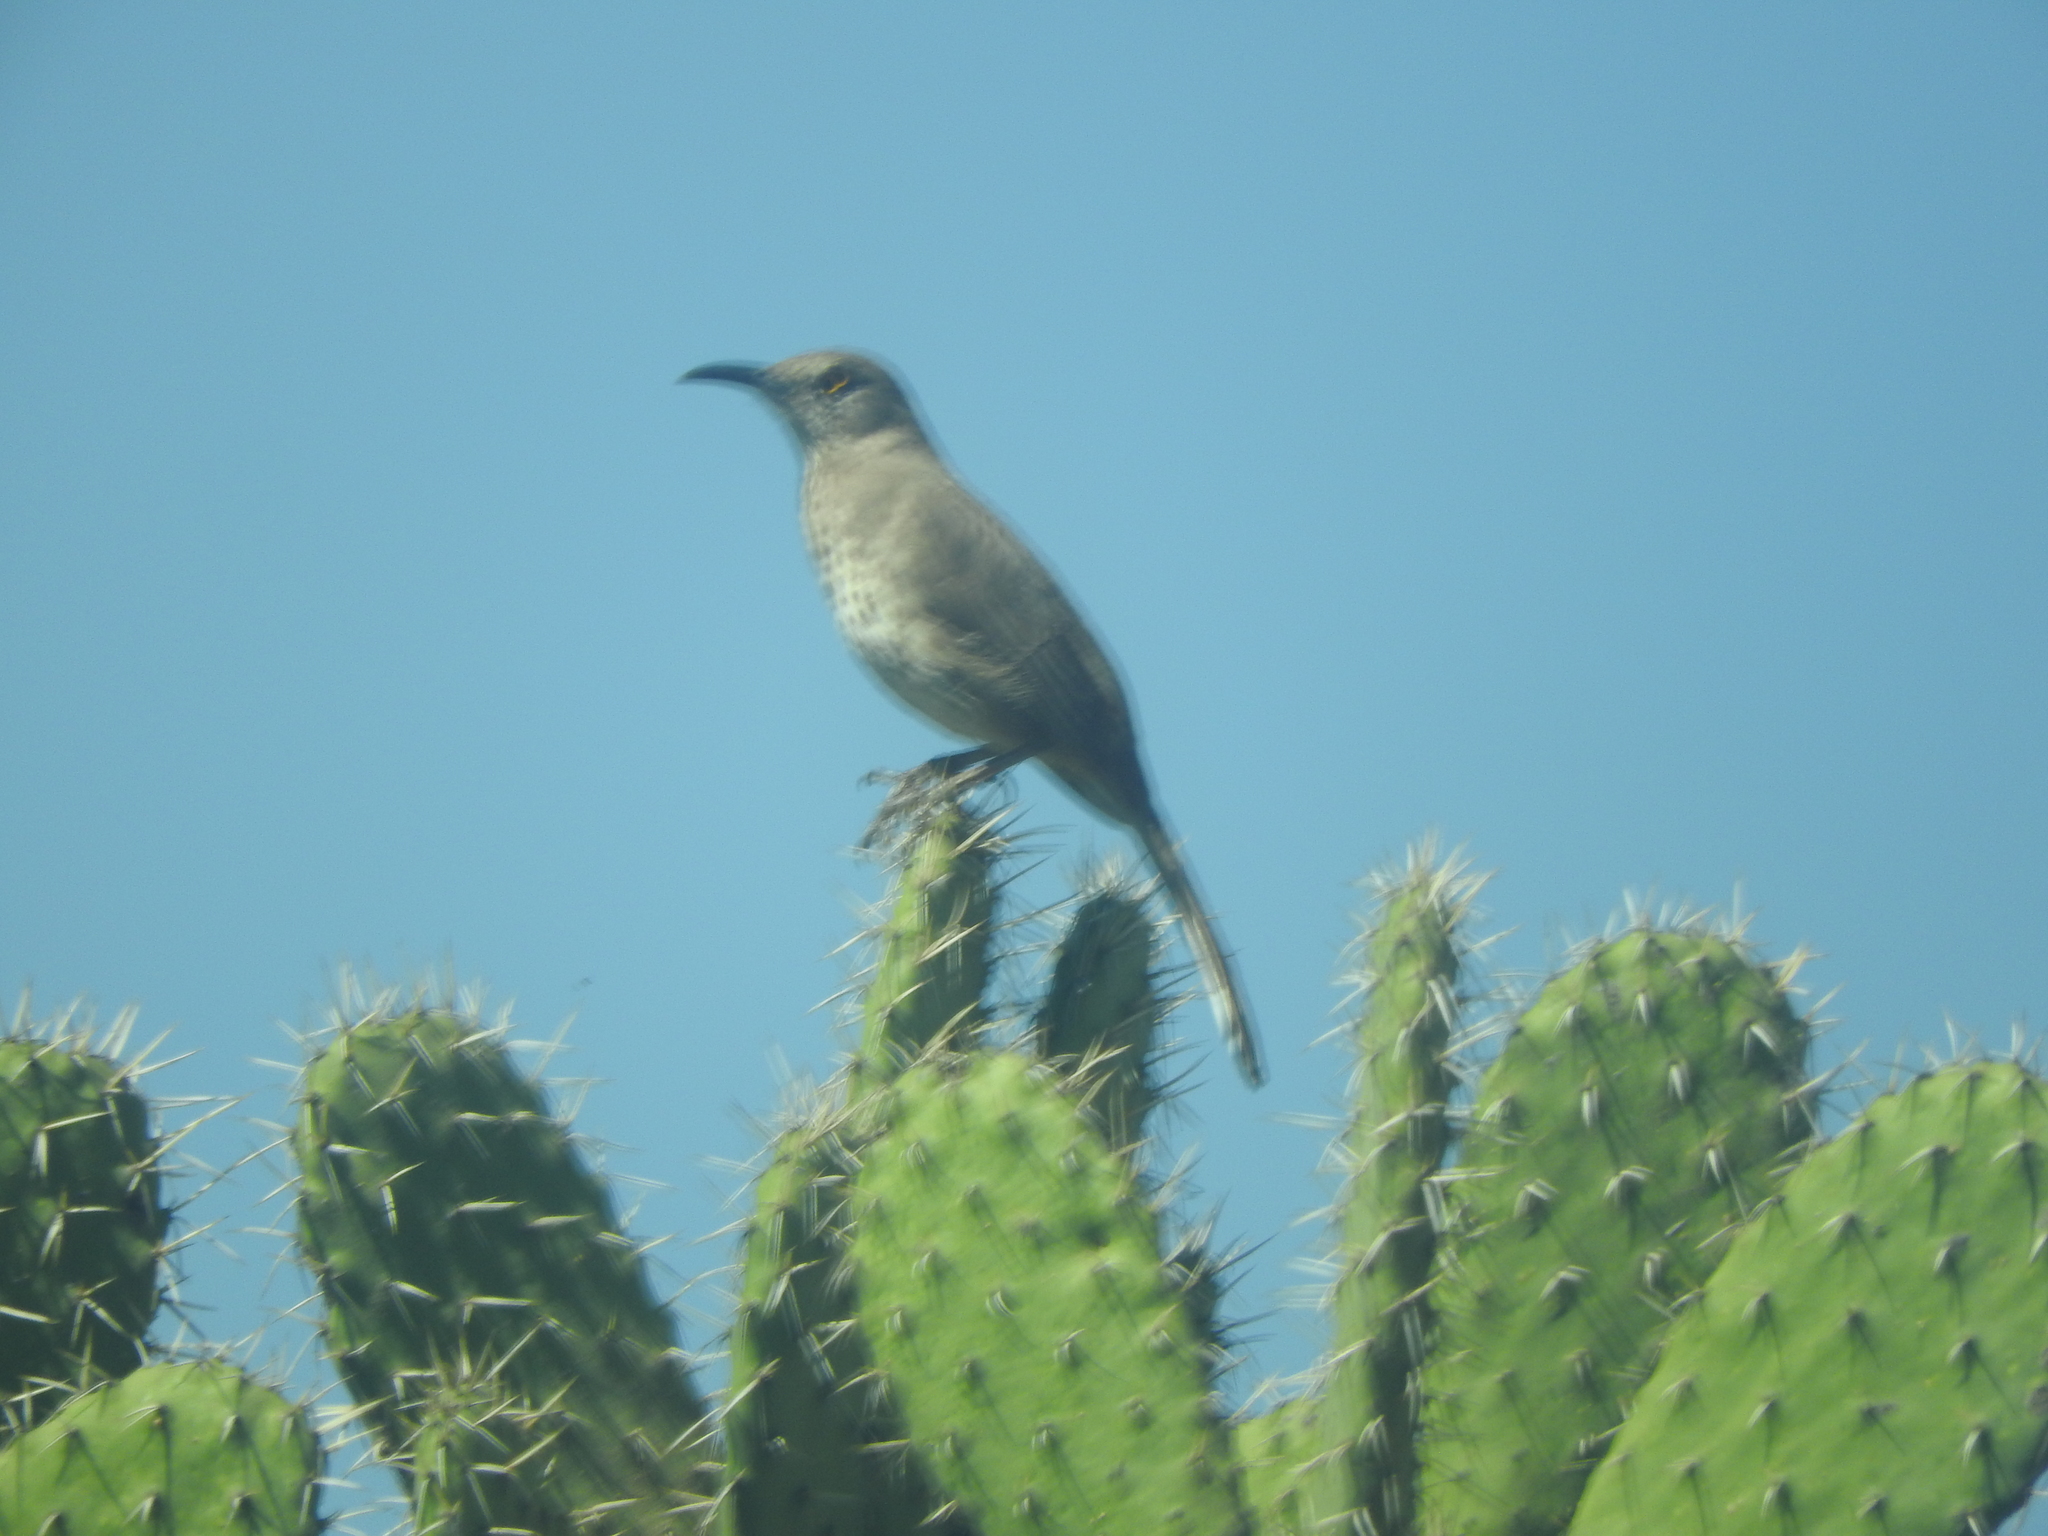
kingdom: Animalia
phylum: Chordata
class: Aves
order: Passeriformes
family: Mimidae
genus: Toxostoma
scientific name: Toxostoma curvirostre
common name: Curve-billed thrasher
